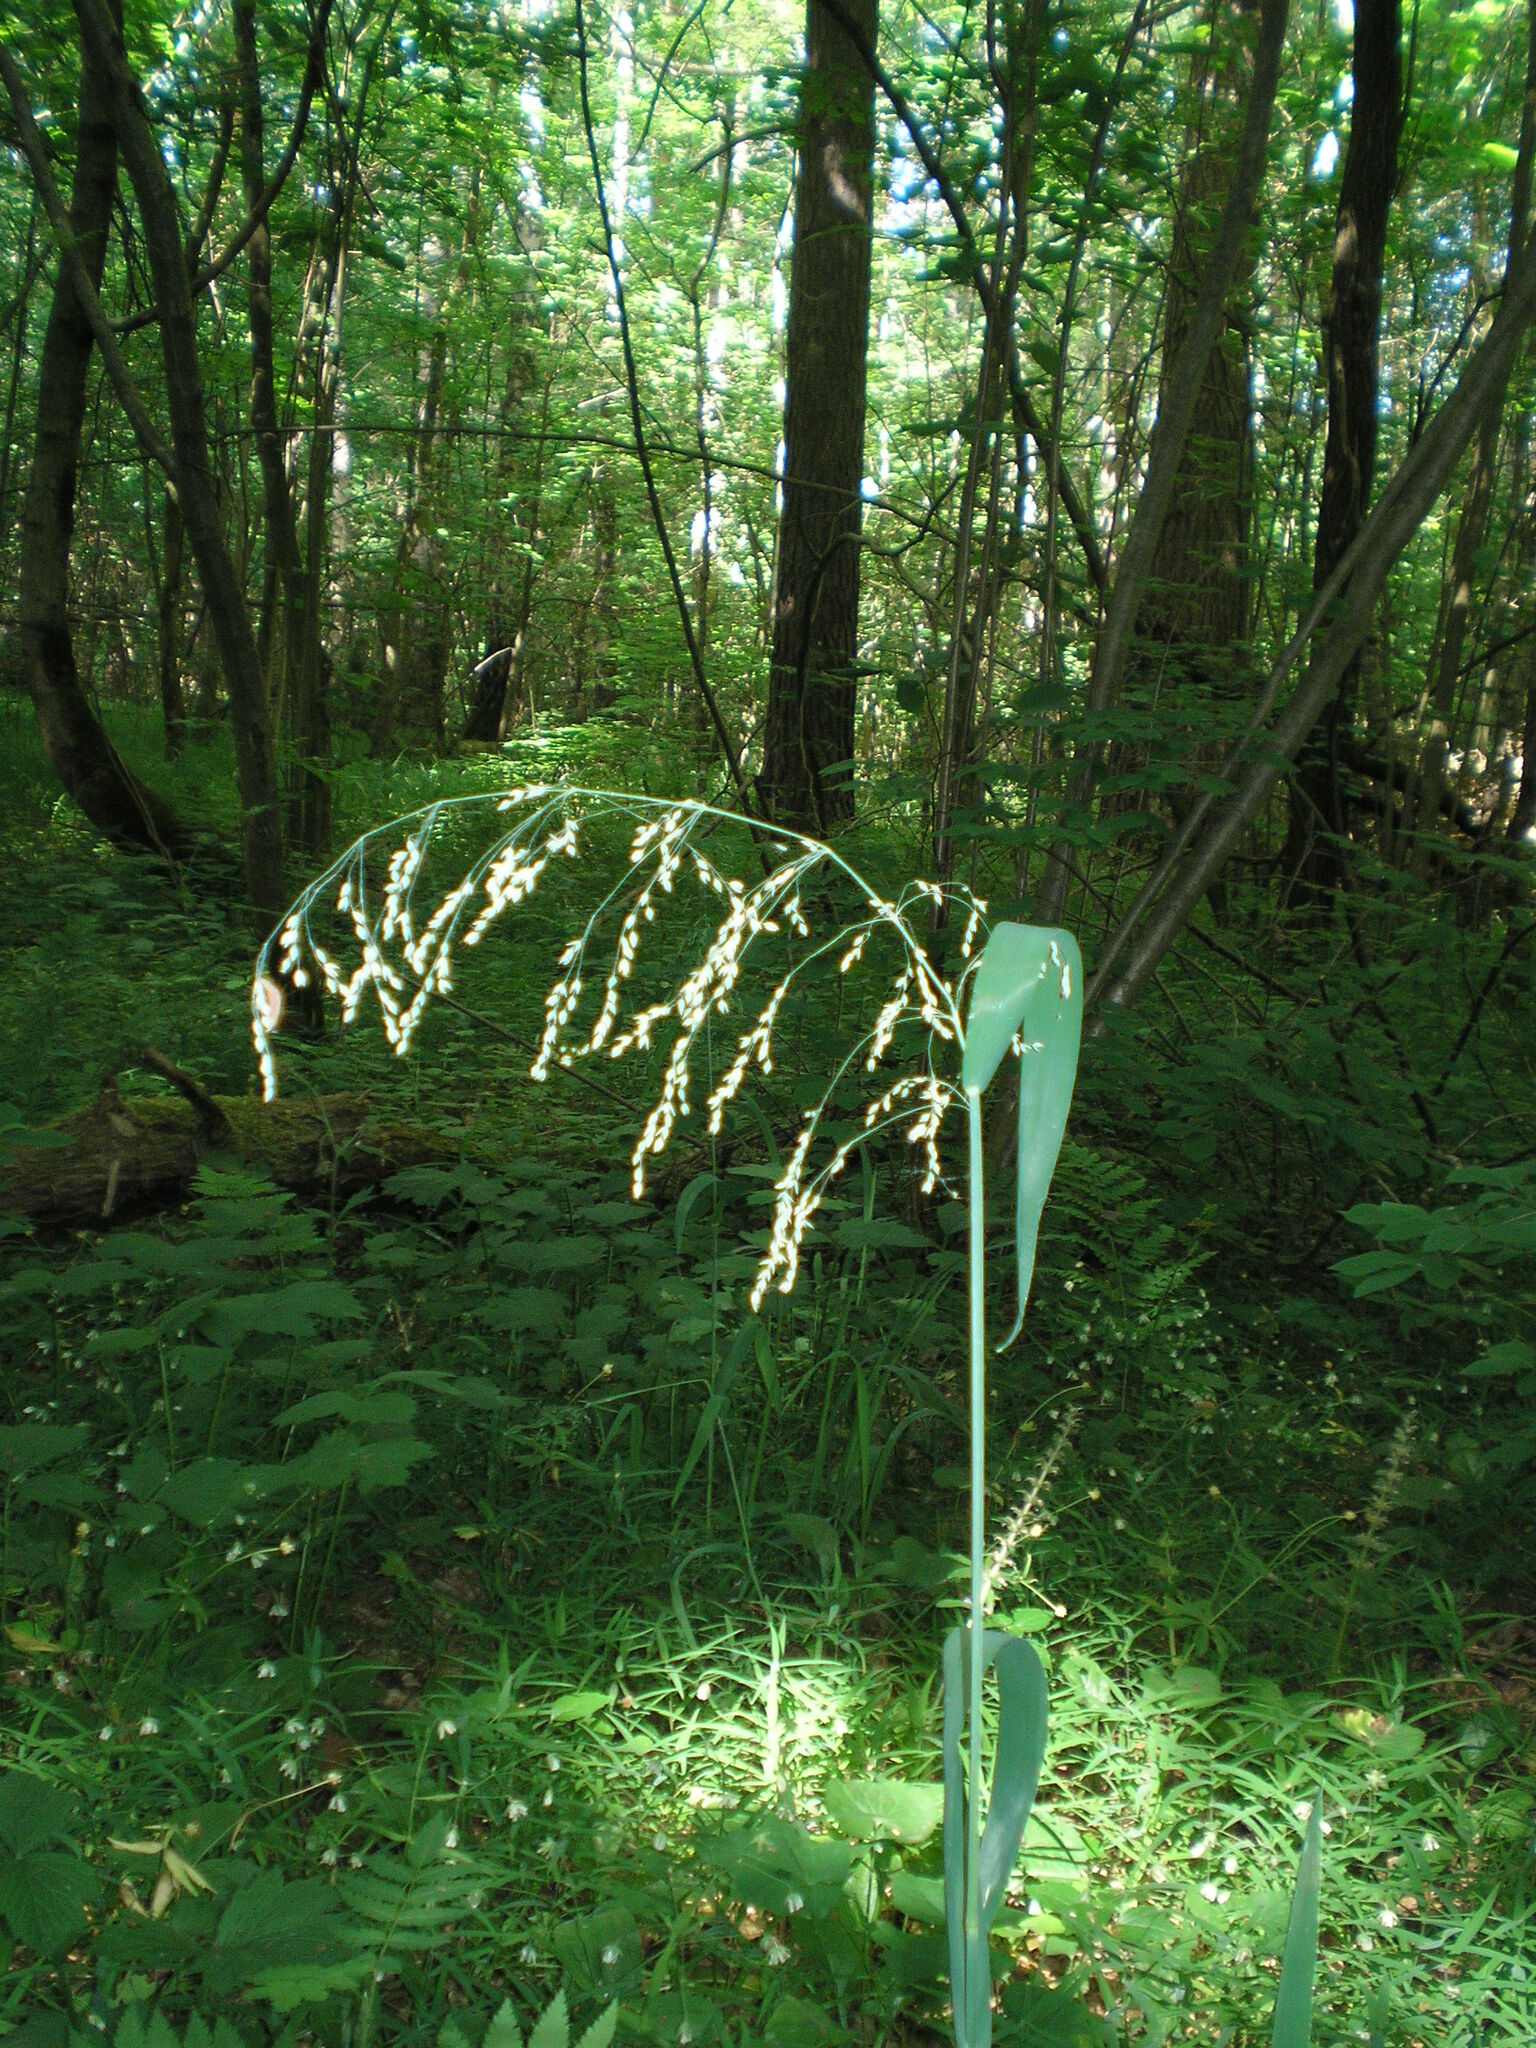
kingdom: Plantae
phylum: Tracheophyta
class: Liliopsida
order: Poales
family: Poaceae
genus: Milium
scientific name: Milium effusum
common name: Wood millet
